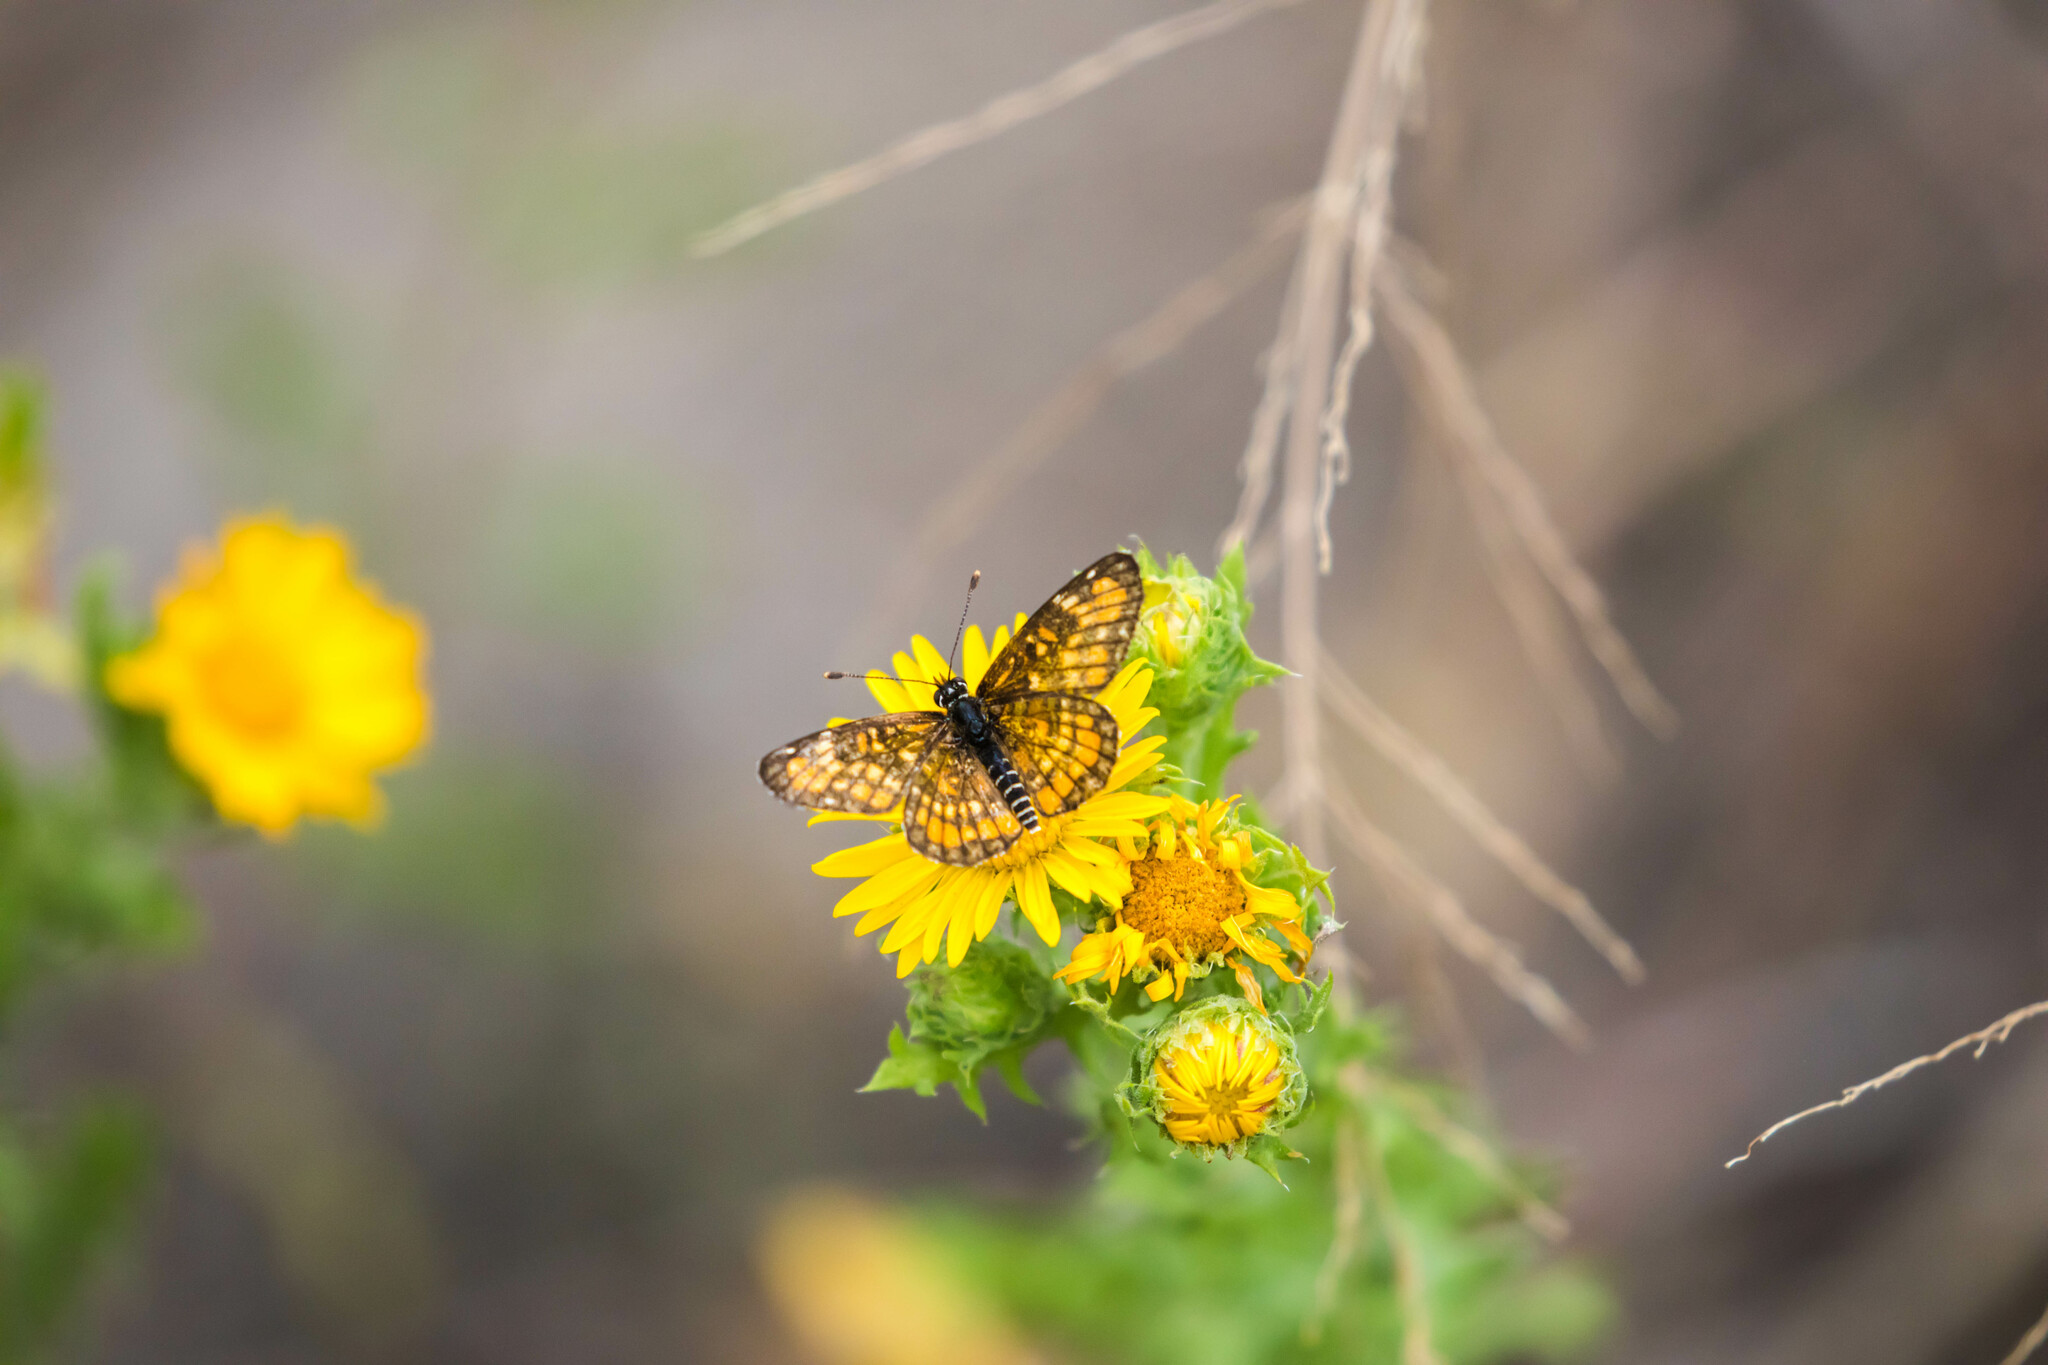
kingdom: Animalia
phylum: Arthropoda
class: Insecta
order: Lepidoptera
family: Nymphalidae
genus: Chlosyne
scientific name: Chlosyne definita
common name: Definite patch
